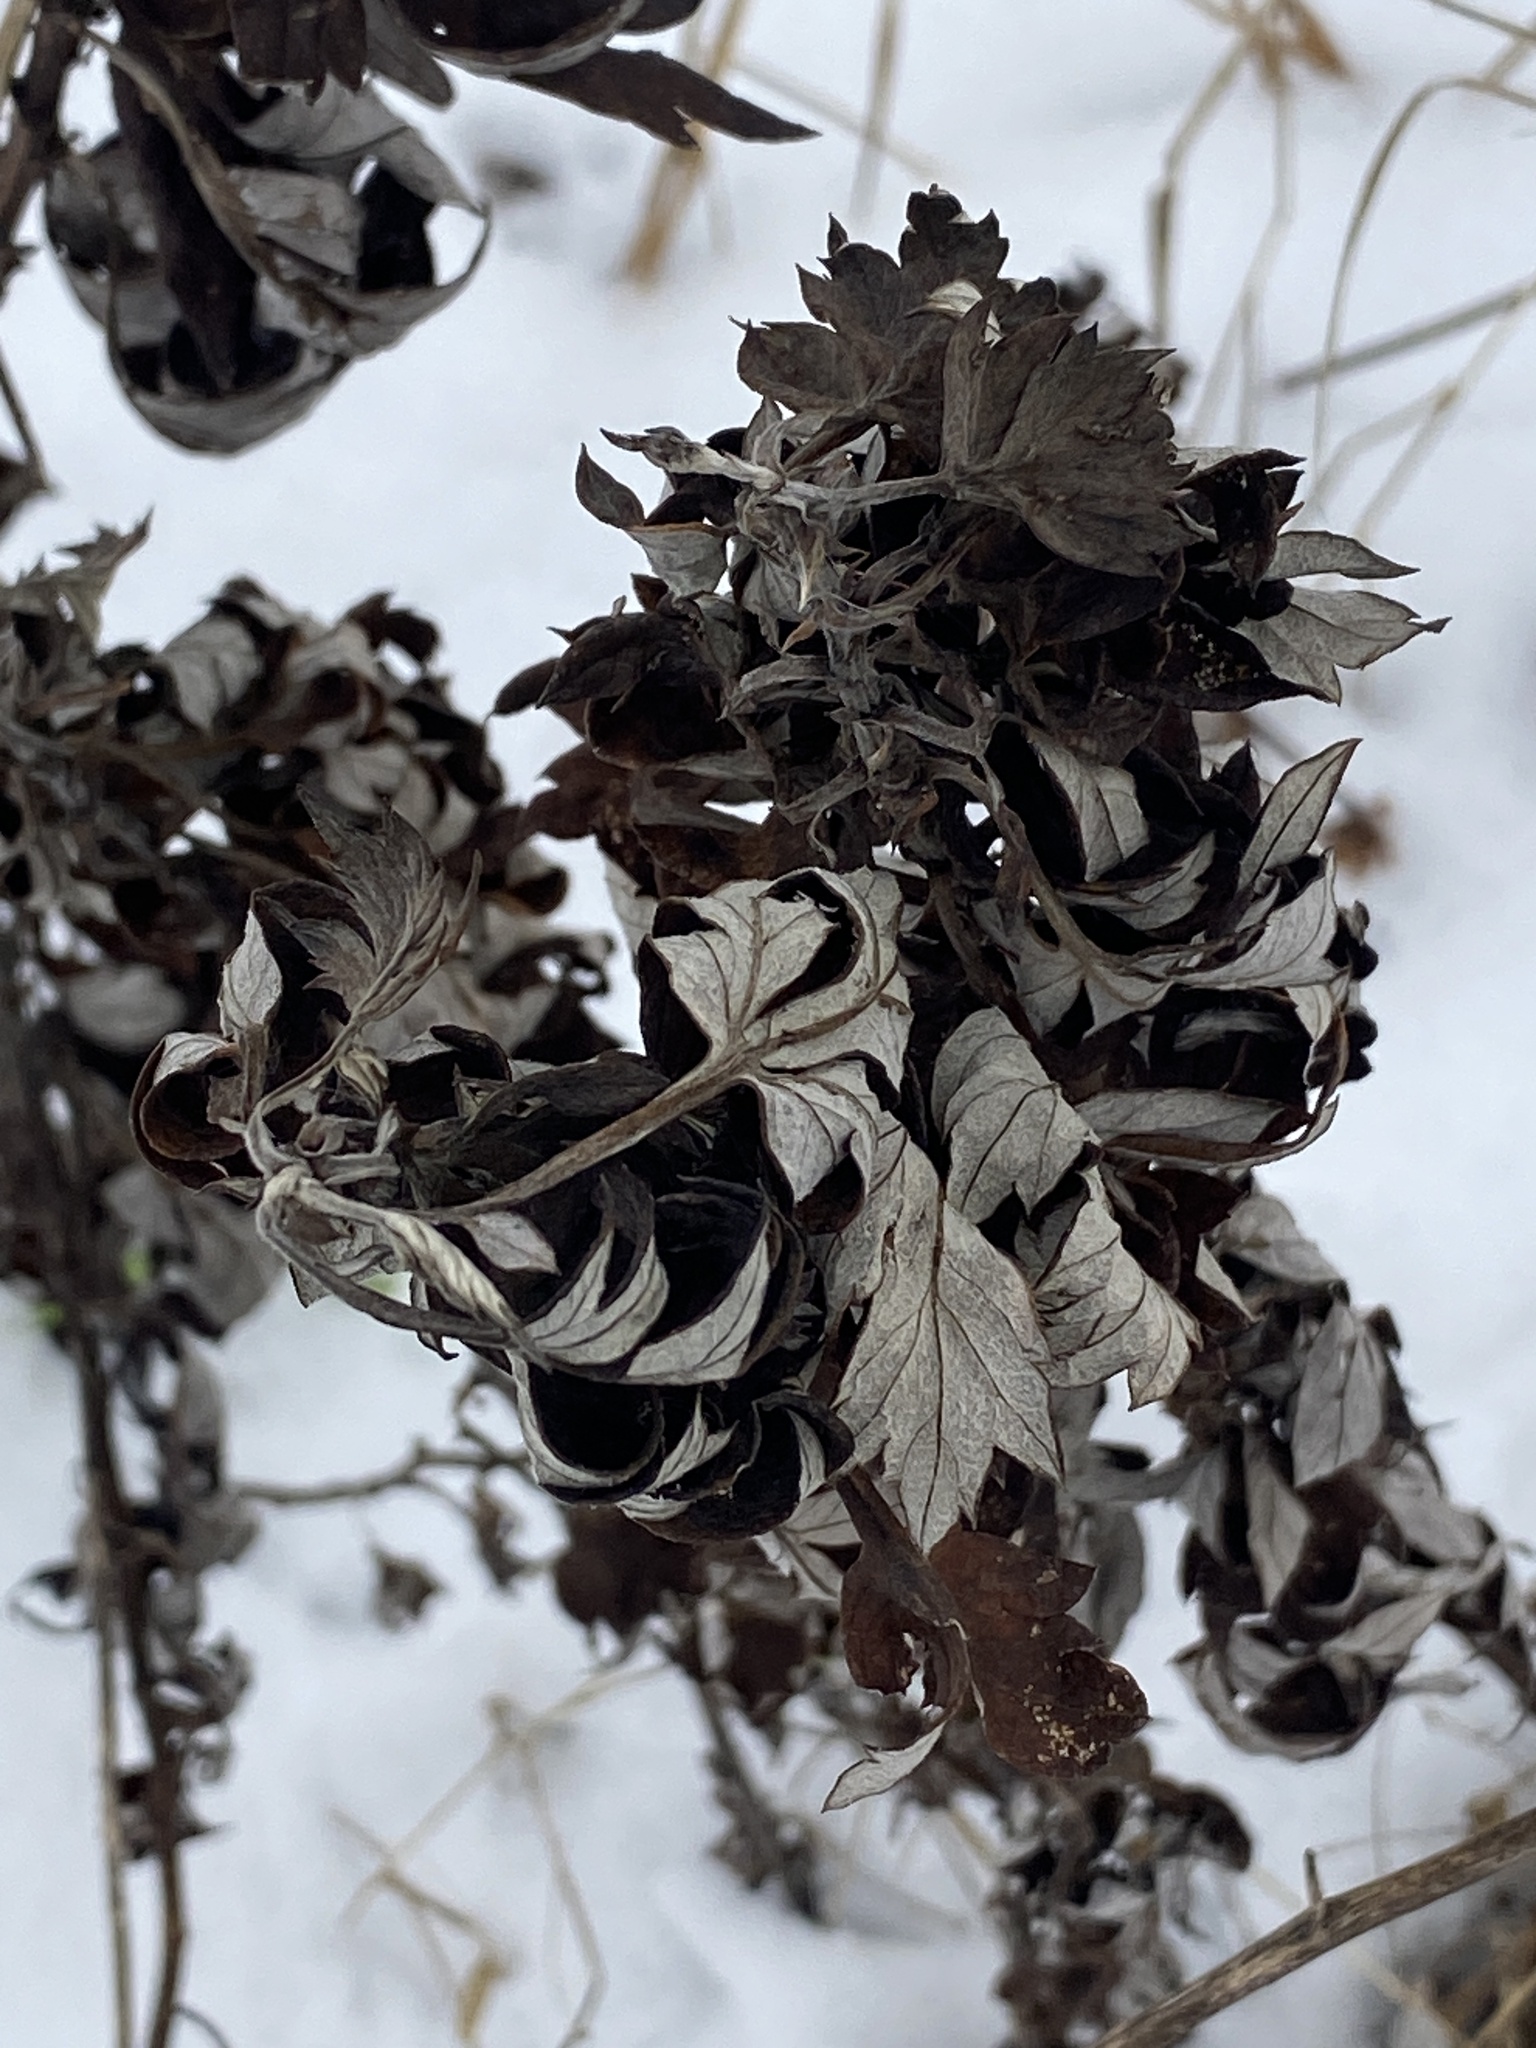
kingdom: Plantae
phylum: Tracheophyta
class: Magnoliopsida
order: Asterales
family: Asteraceae
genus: Artemisia
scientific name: Artemisia vulgaris
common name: Mugwort
